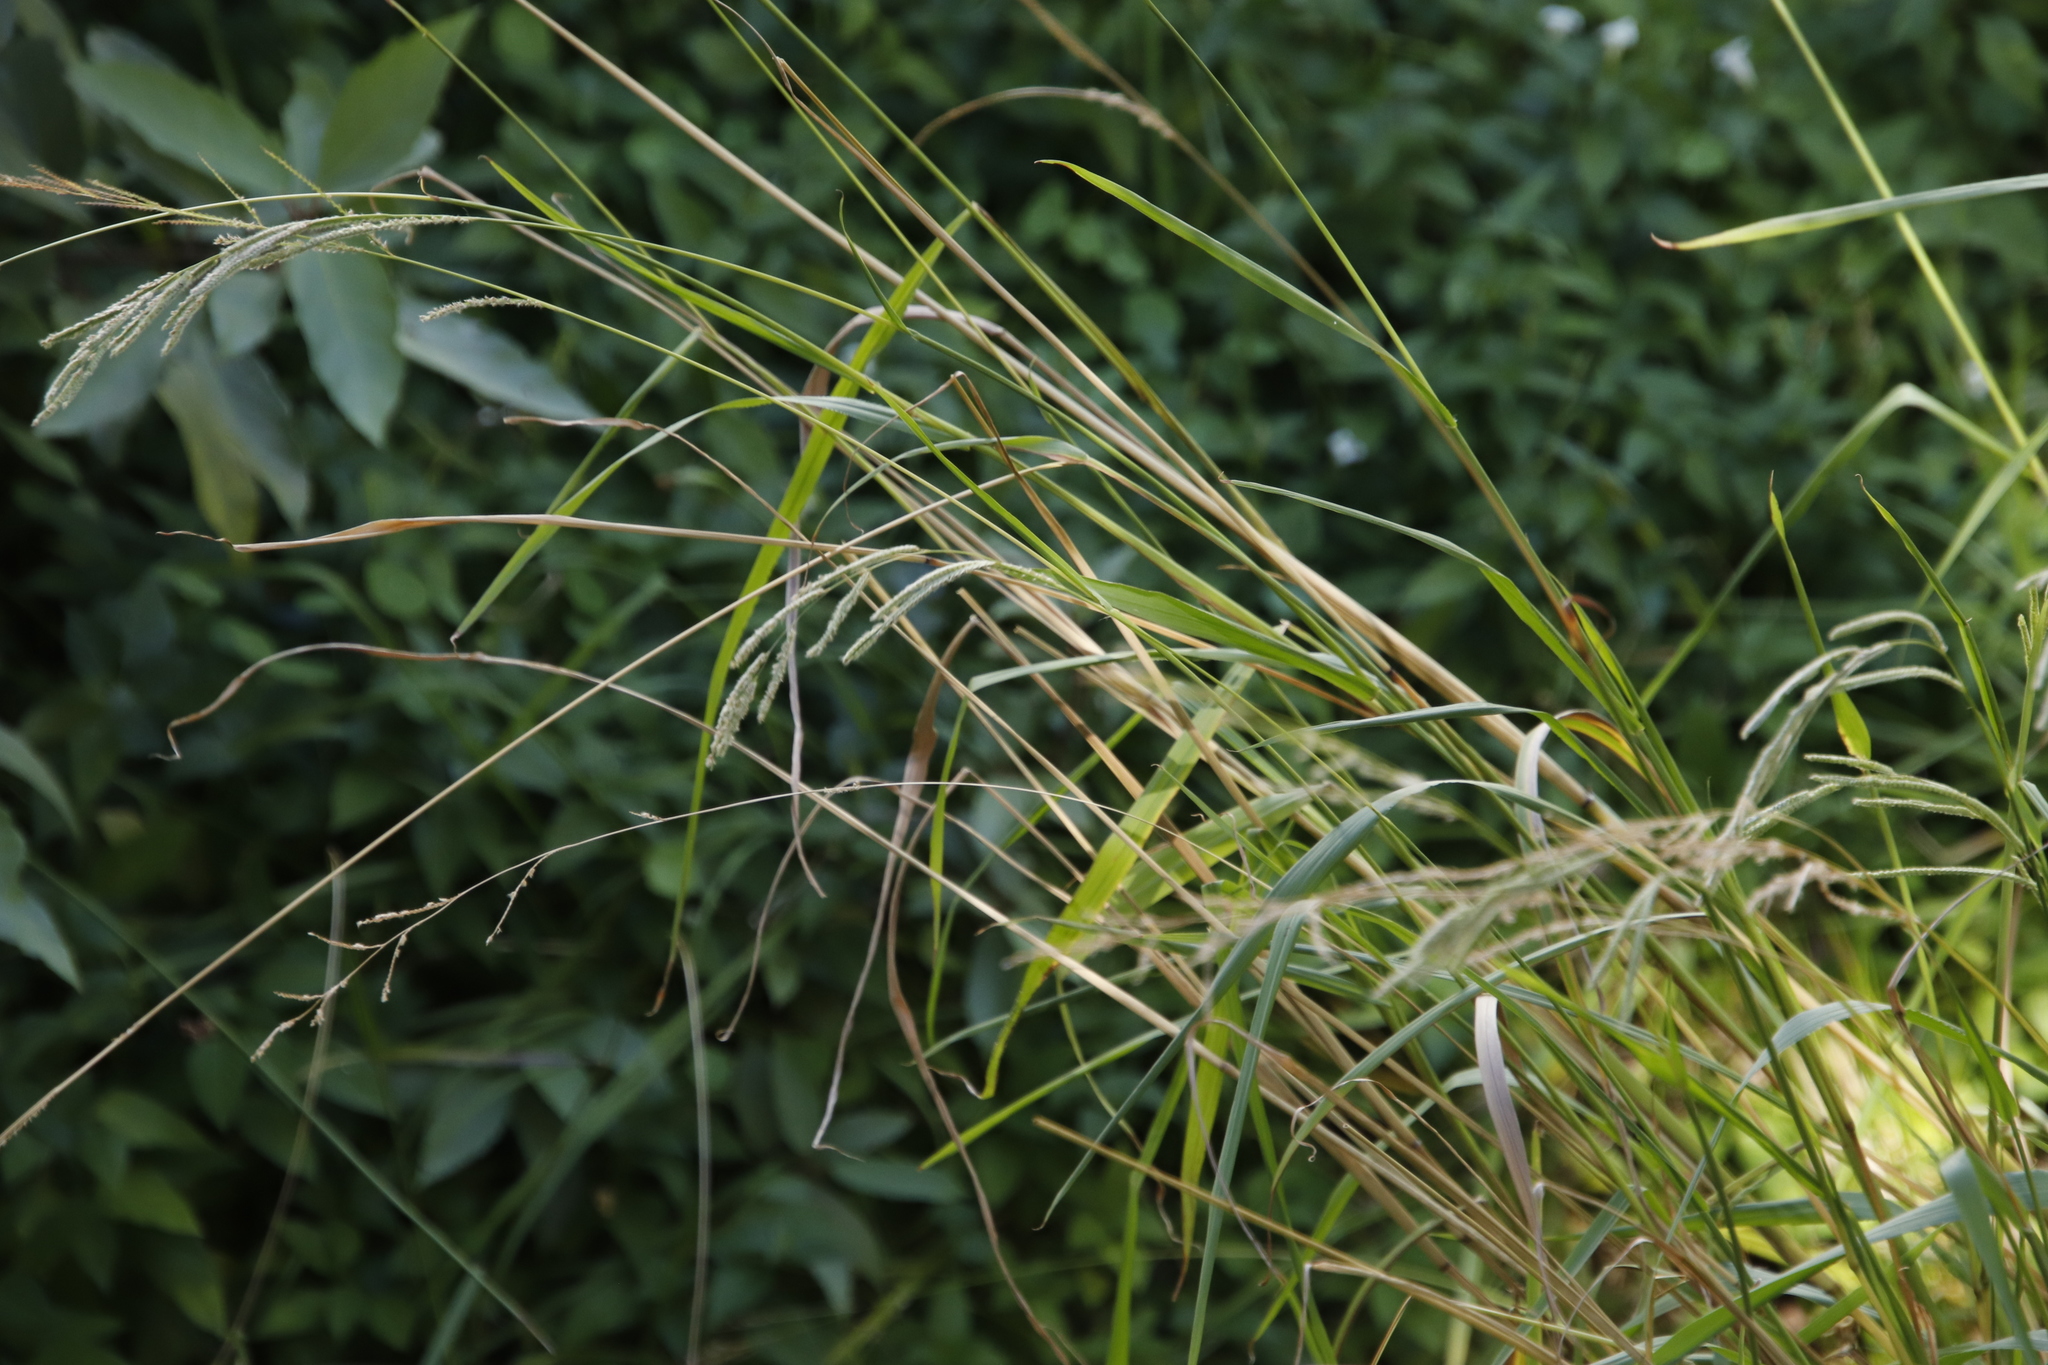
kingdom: Plantae
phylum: Tracheophyta
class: Liliopsida
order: Poales
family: Poaceae
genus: Paspalum
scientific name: Paspalum urvillei
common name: Vasey's grass
